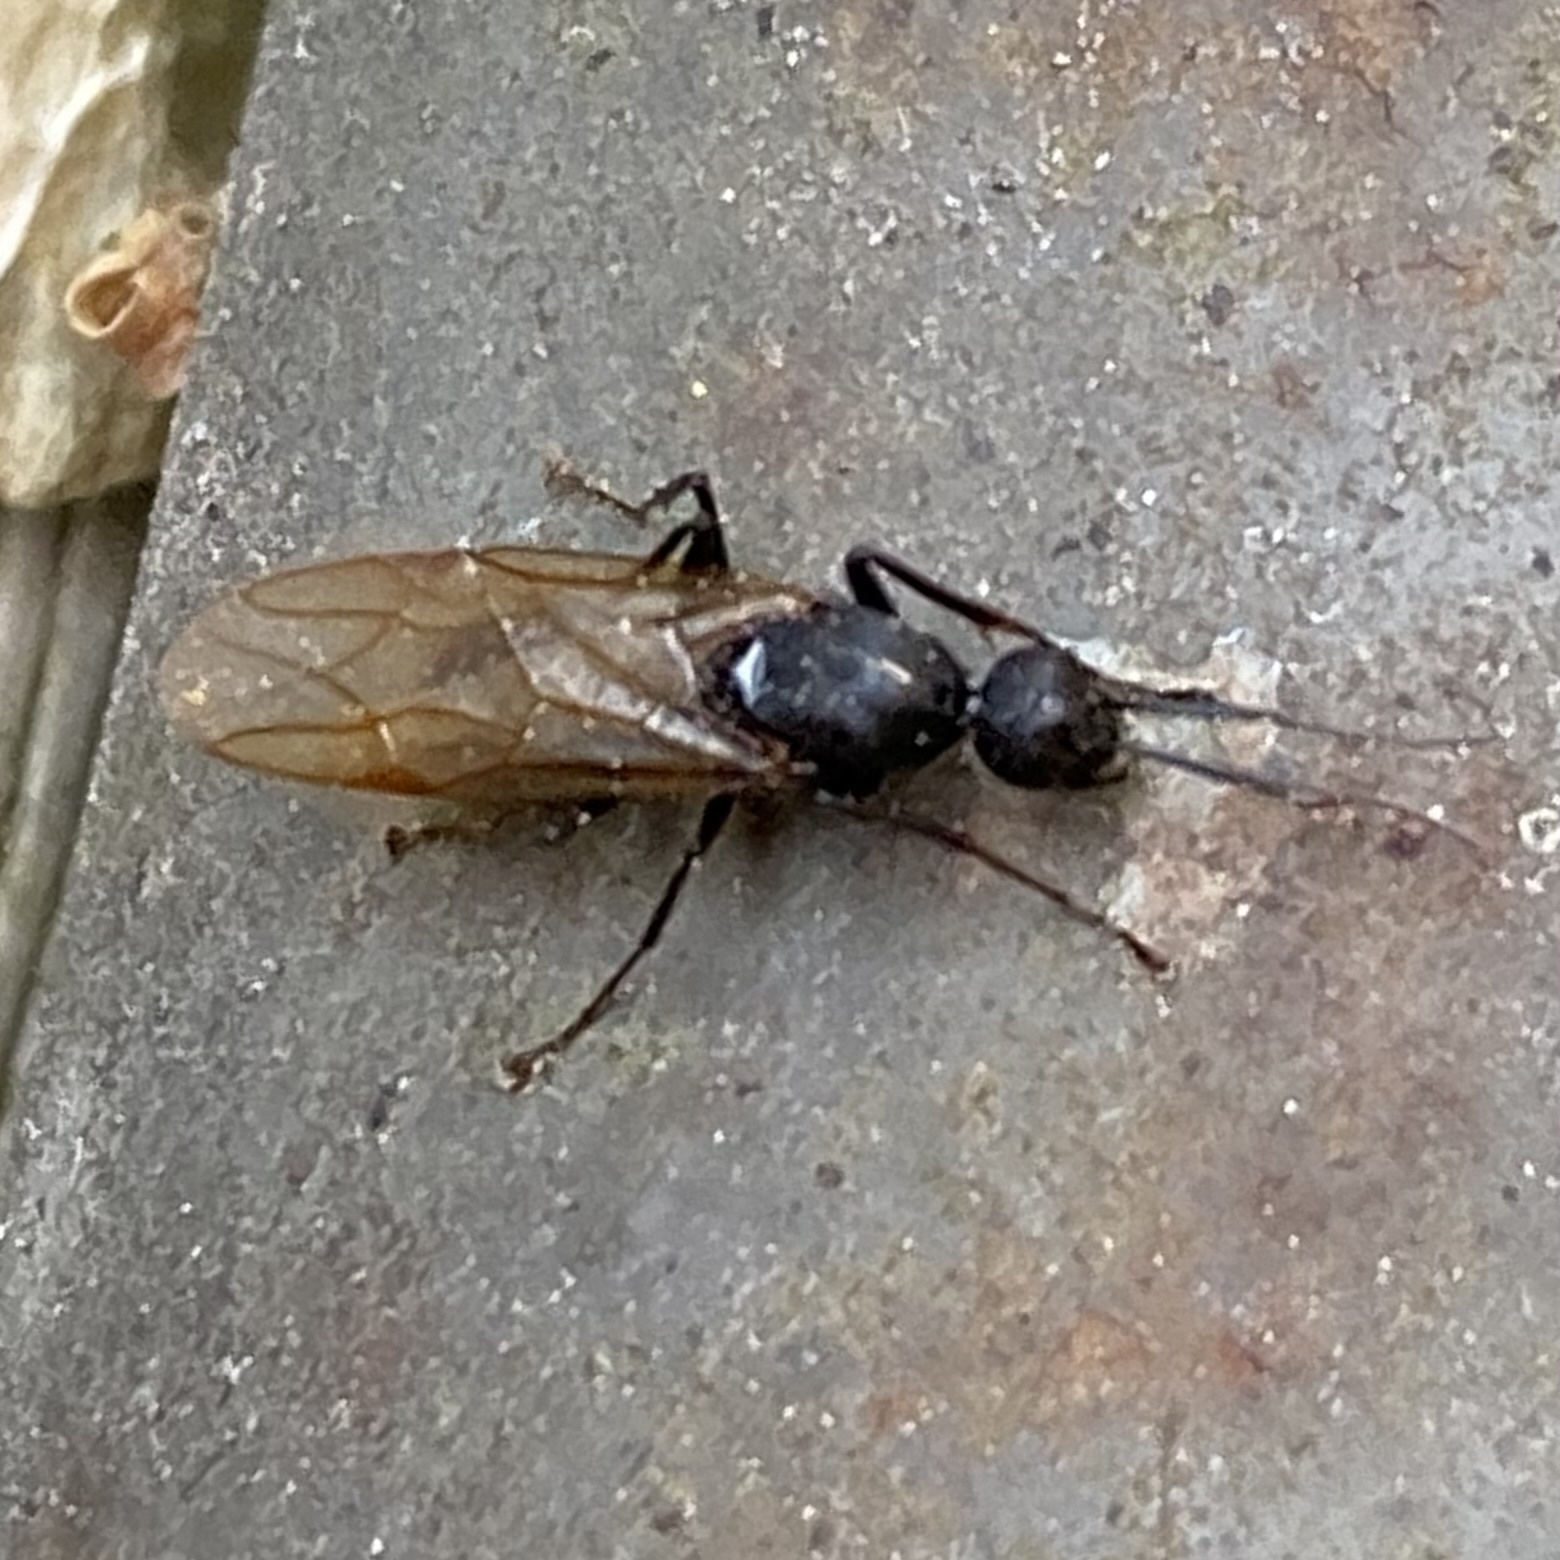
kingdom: Animalia
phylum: Arthropoda
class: Insecta
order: Hymenoptera
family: Formicidae
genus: Camponotus
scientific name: Camponotus
